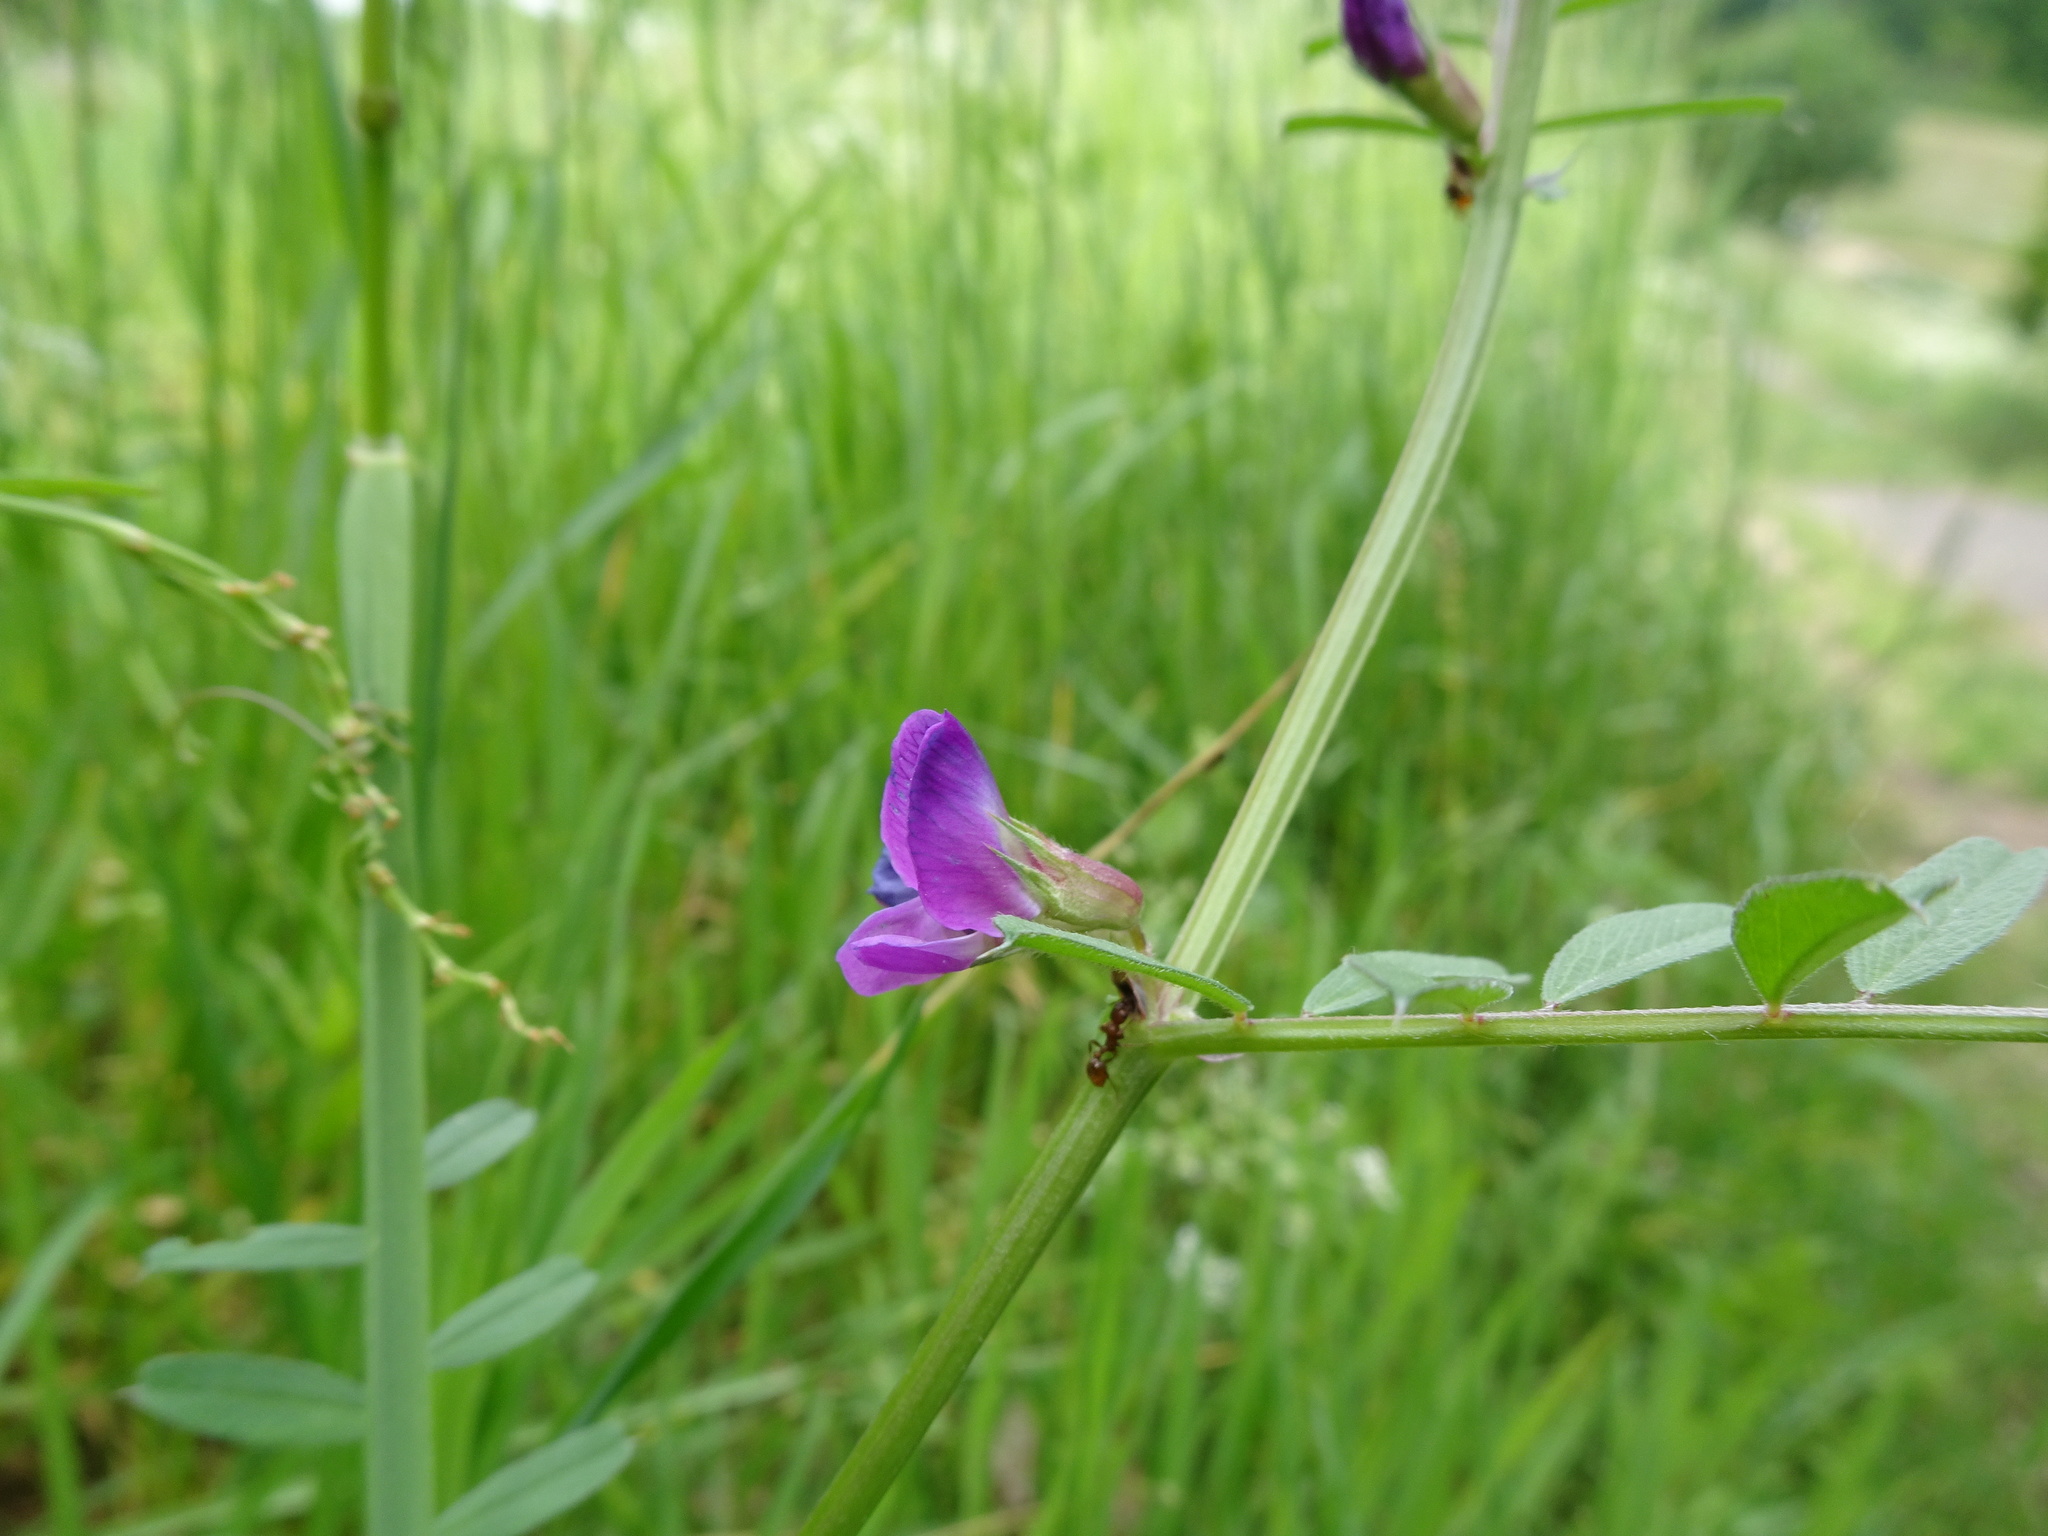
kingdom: Plantae
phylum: Tracheophyta
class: Magnoliopsida
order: Fabales
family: Fabaceae
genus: Vicia
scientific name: Vicia sativa
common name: Garden vetch
